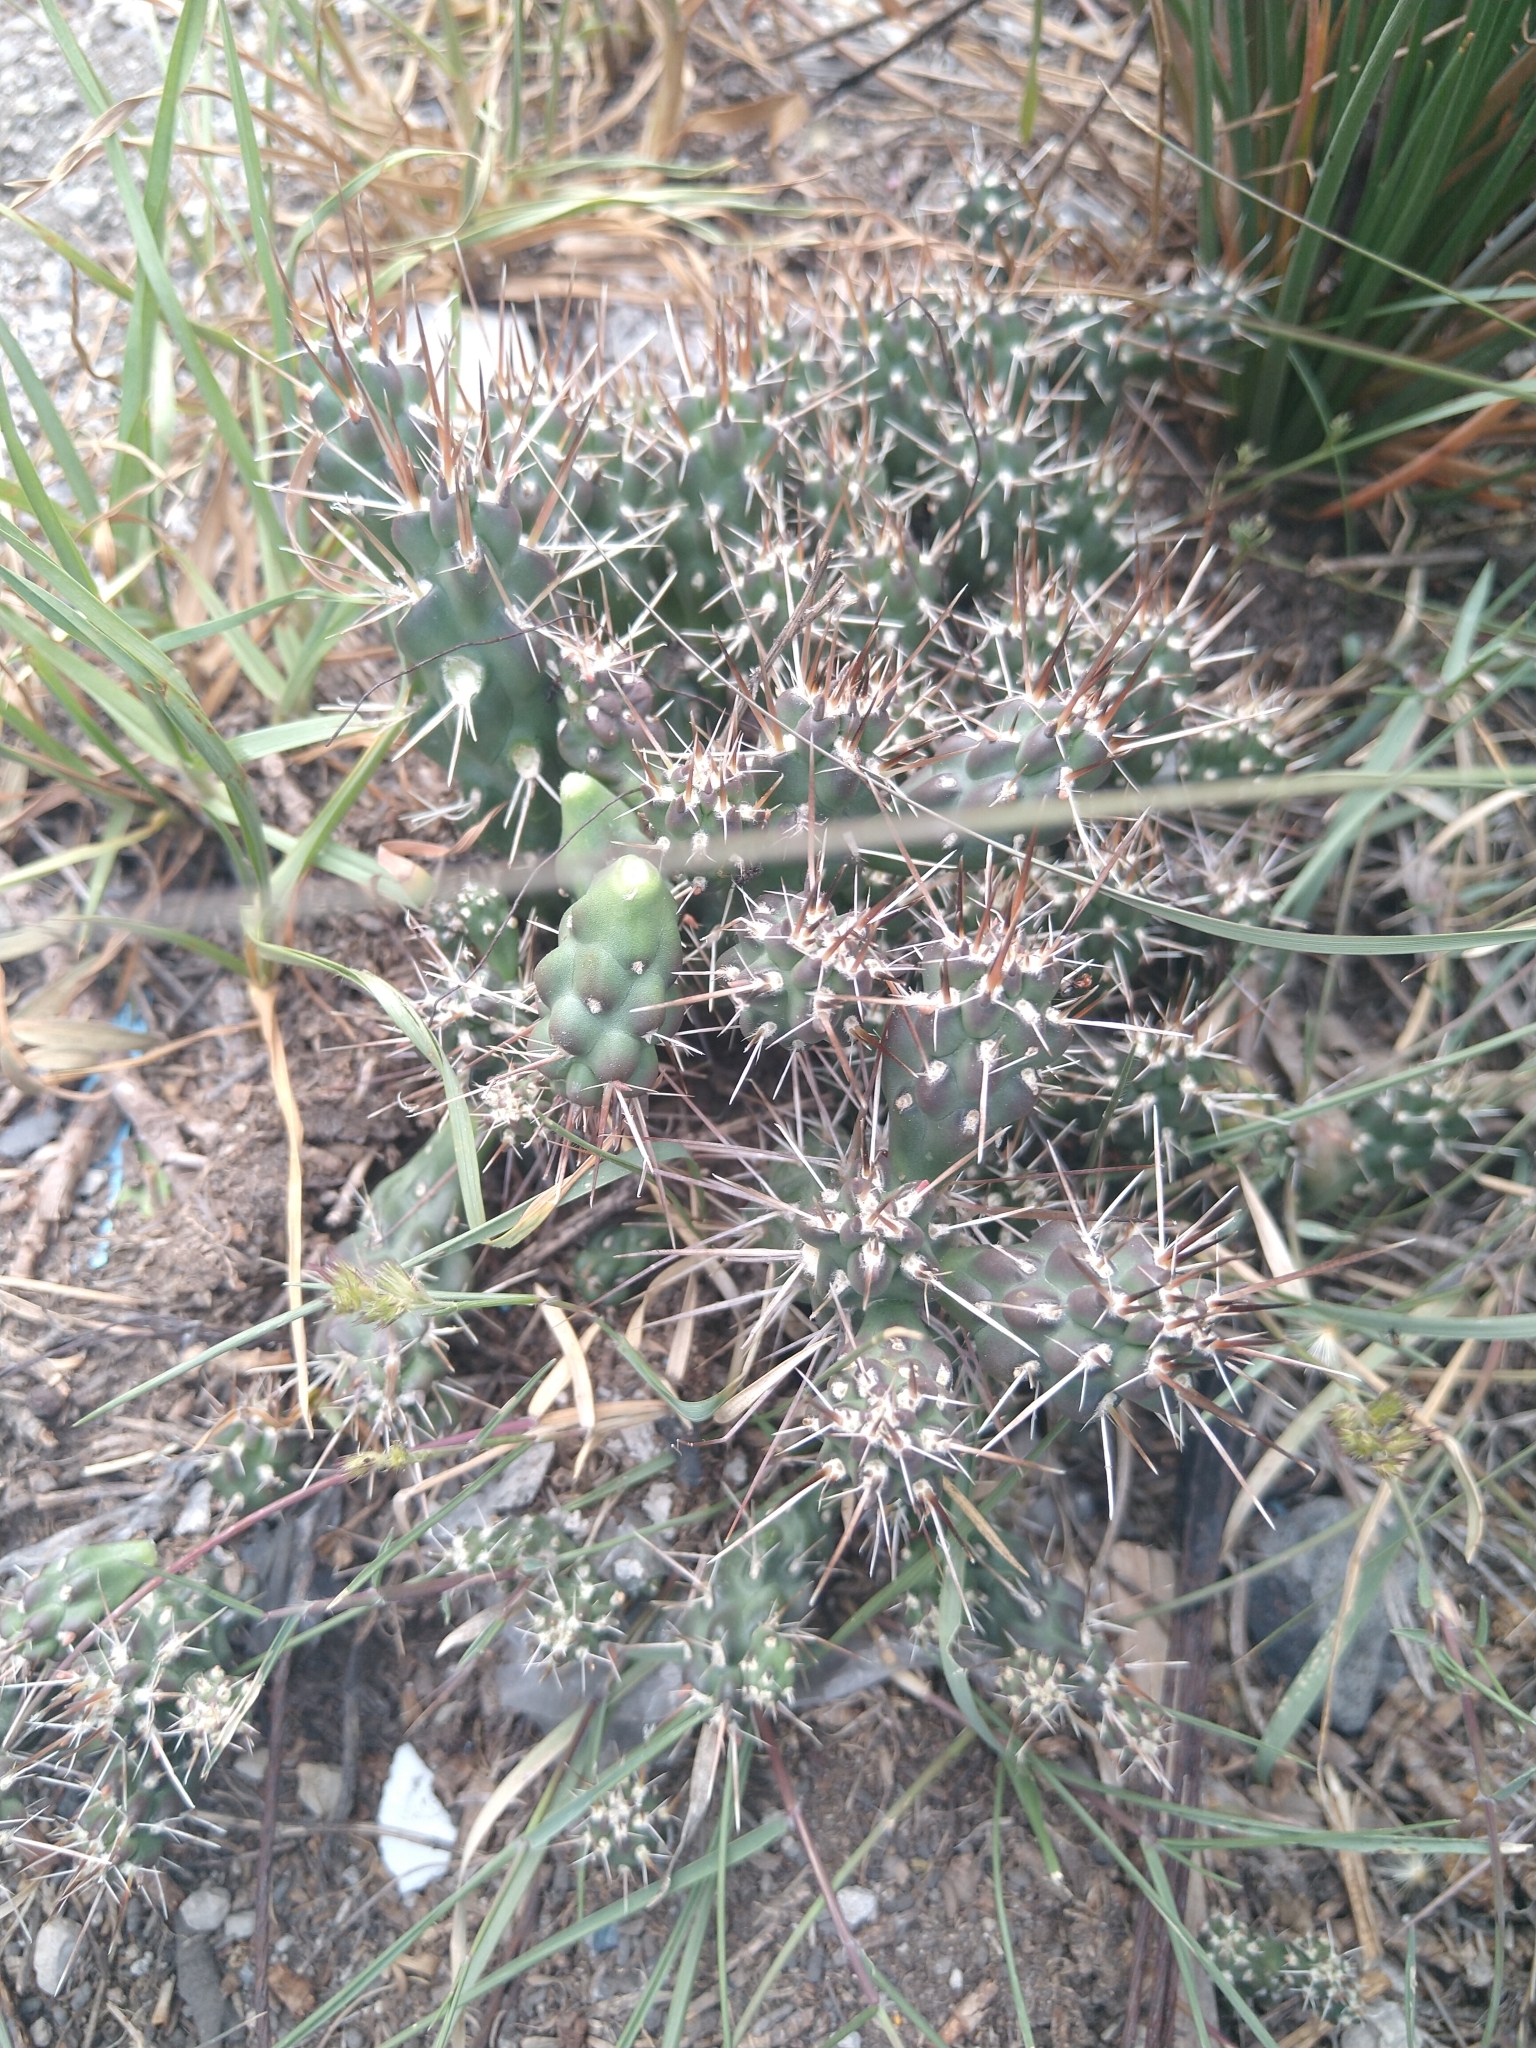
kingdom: Plantae
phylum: Tracheophyta
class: Magnoliopsida
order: Caryophyllales
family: Cactaceae
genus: Cylindropuntia
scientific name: Cylindropuntia tunicata
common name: Sheathed cholla
